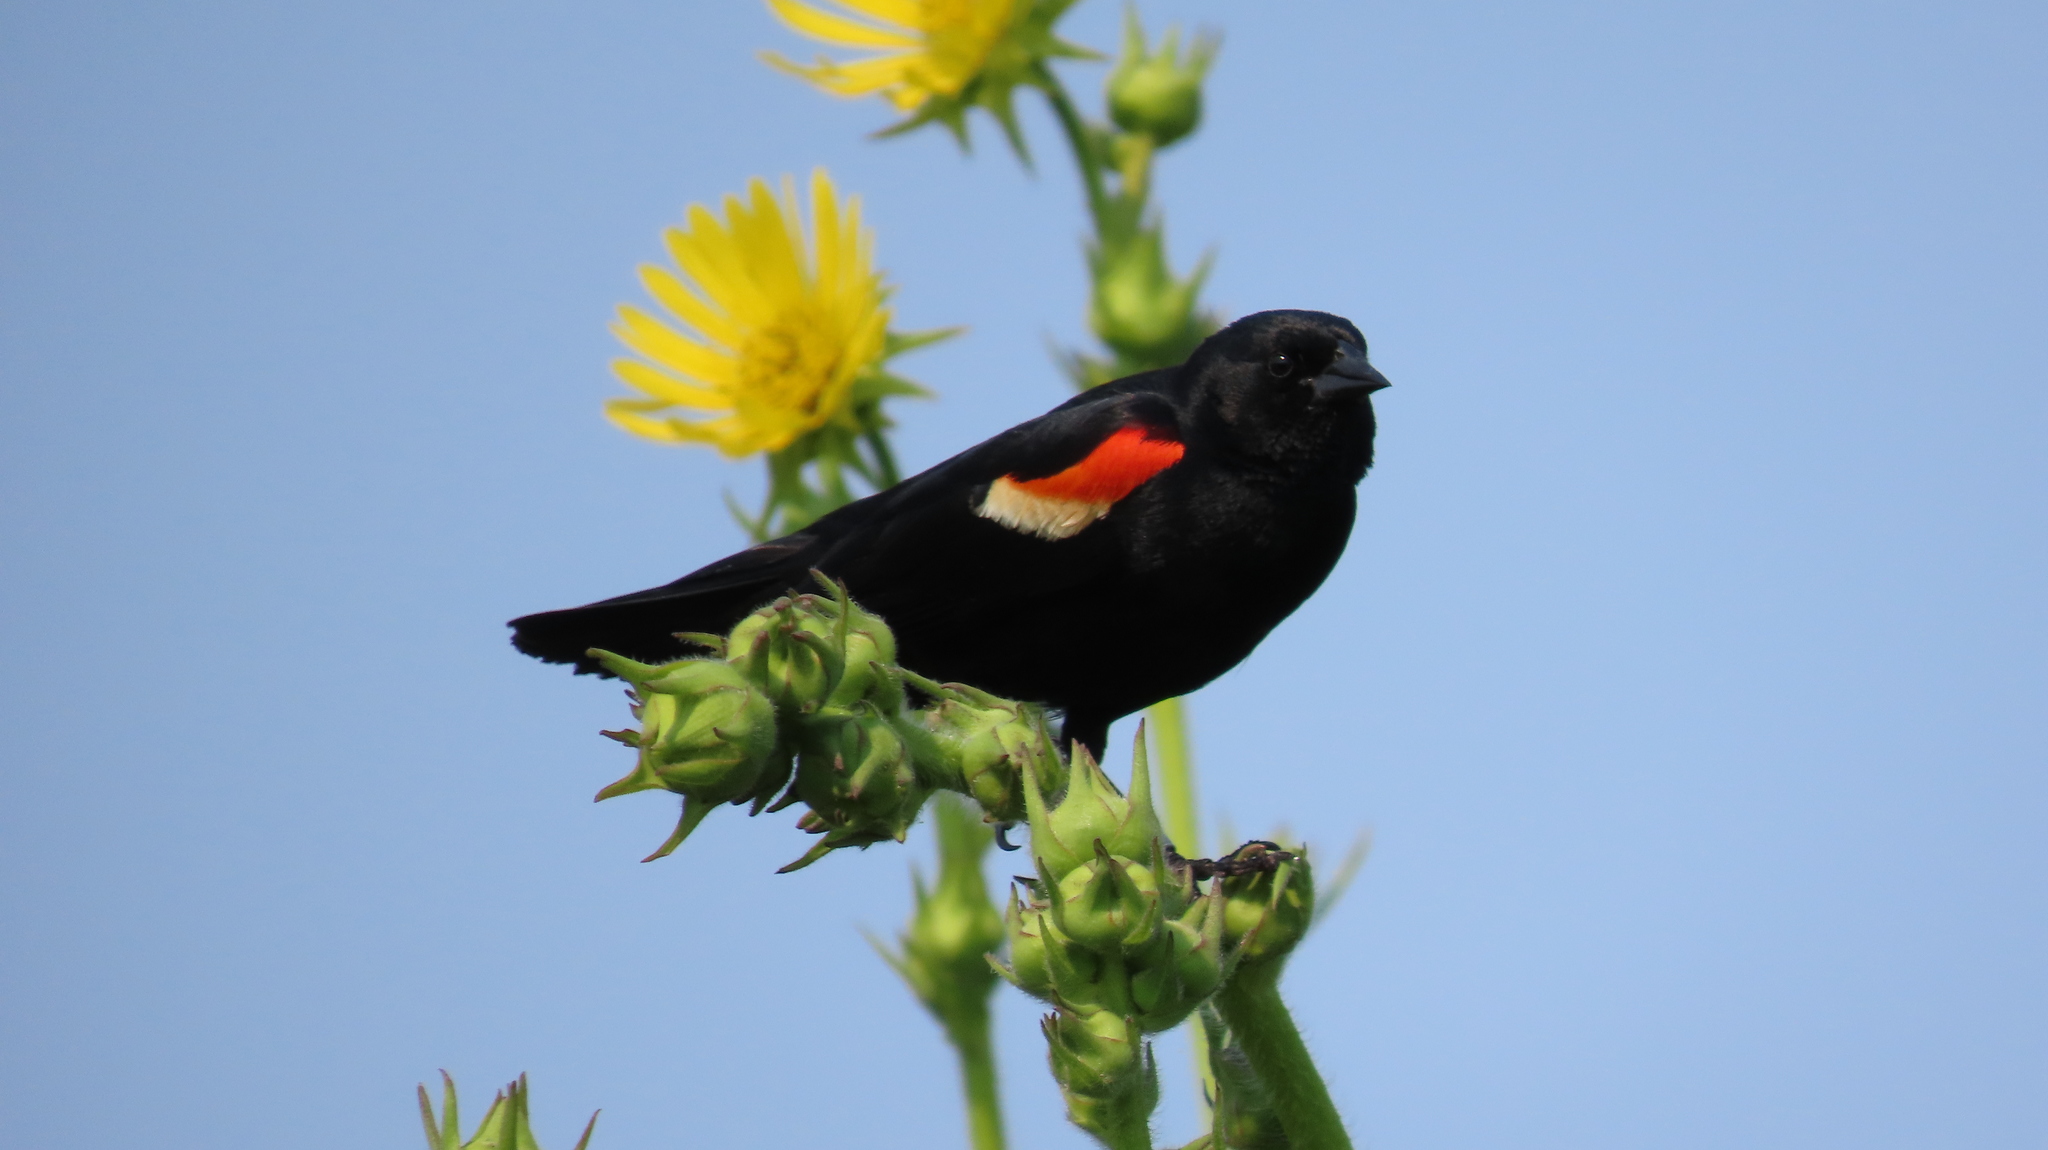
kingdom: Animalia
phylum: Chordata
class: Aves
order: Passeriformes
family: Icteridae
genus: Agelaius
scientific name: Agelaius phoeniceus
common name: Red-winged blackbird
